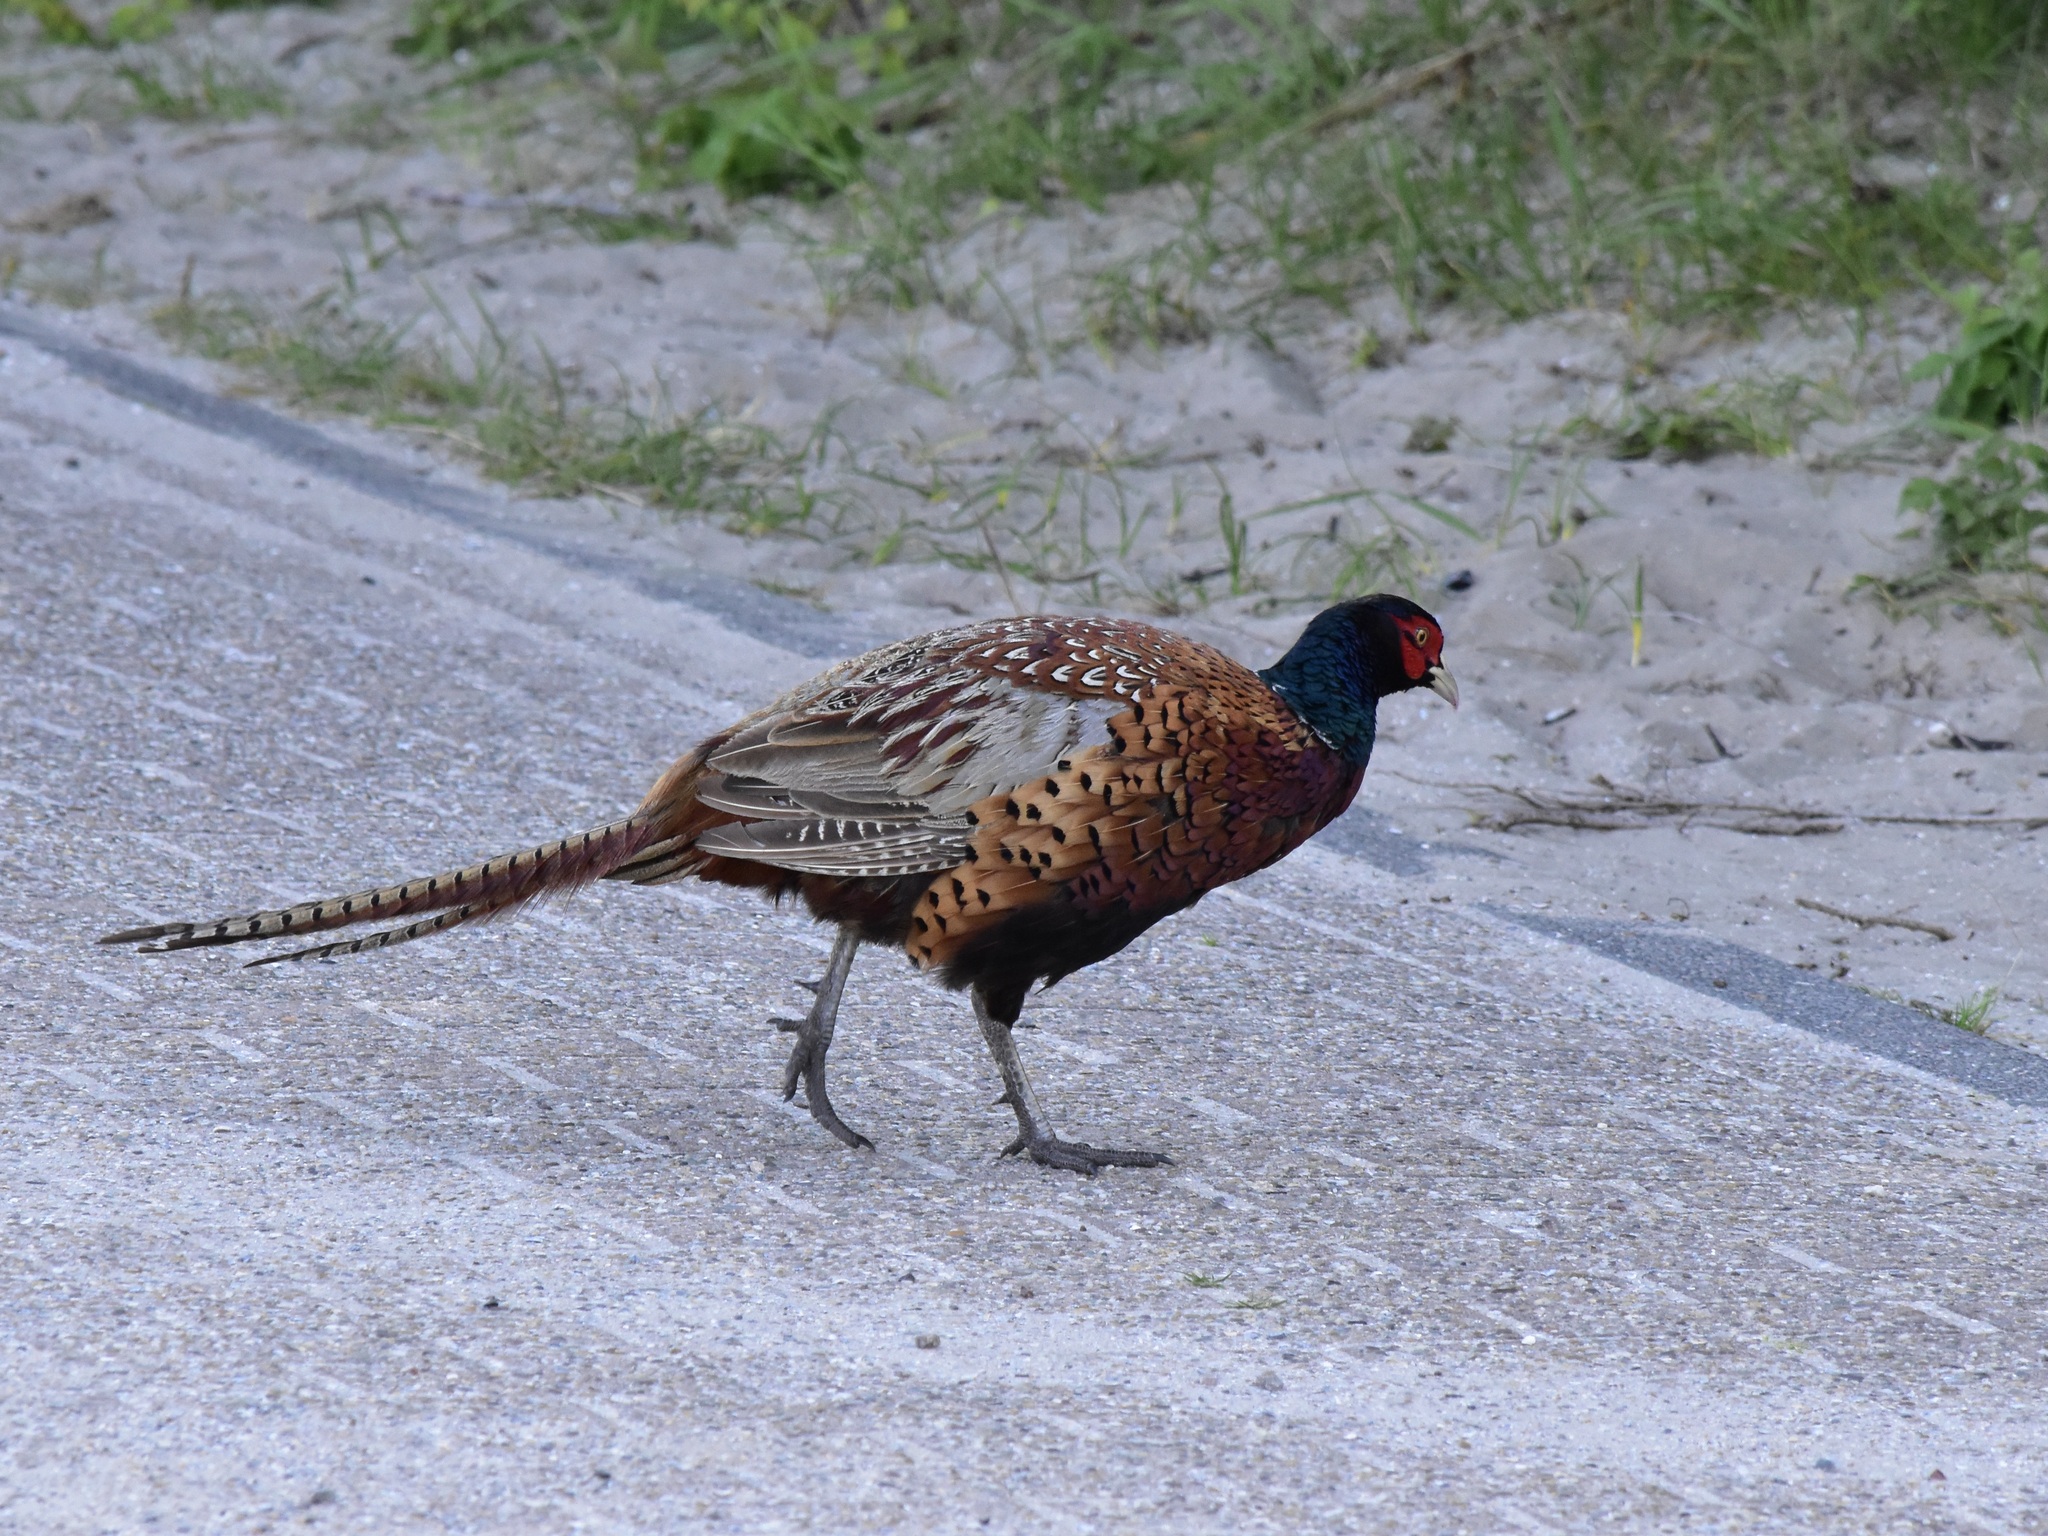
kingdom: Animalia
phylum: Chordata
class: Aves
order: Galliformes
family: Phasianidae
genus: Phasianus
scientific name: Phasianus colchicus
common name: Common pheasant
